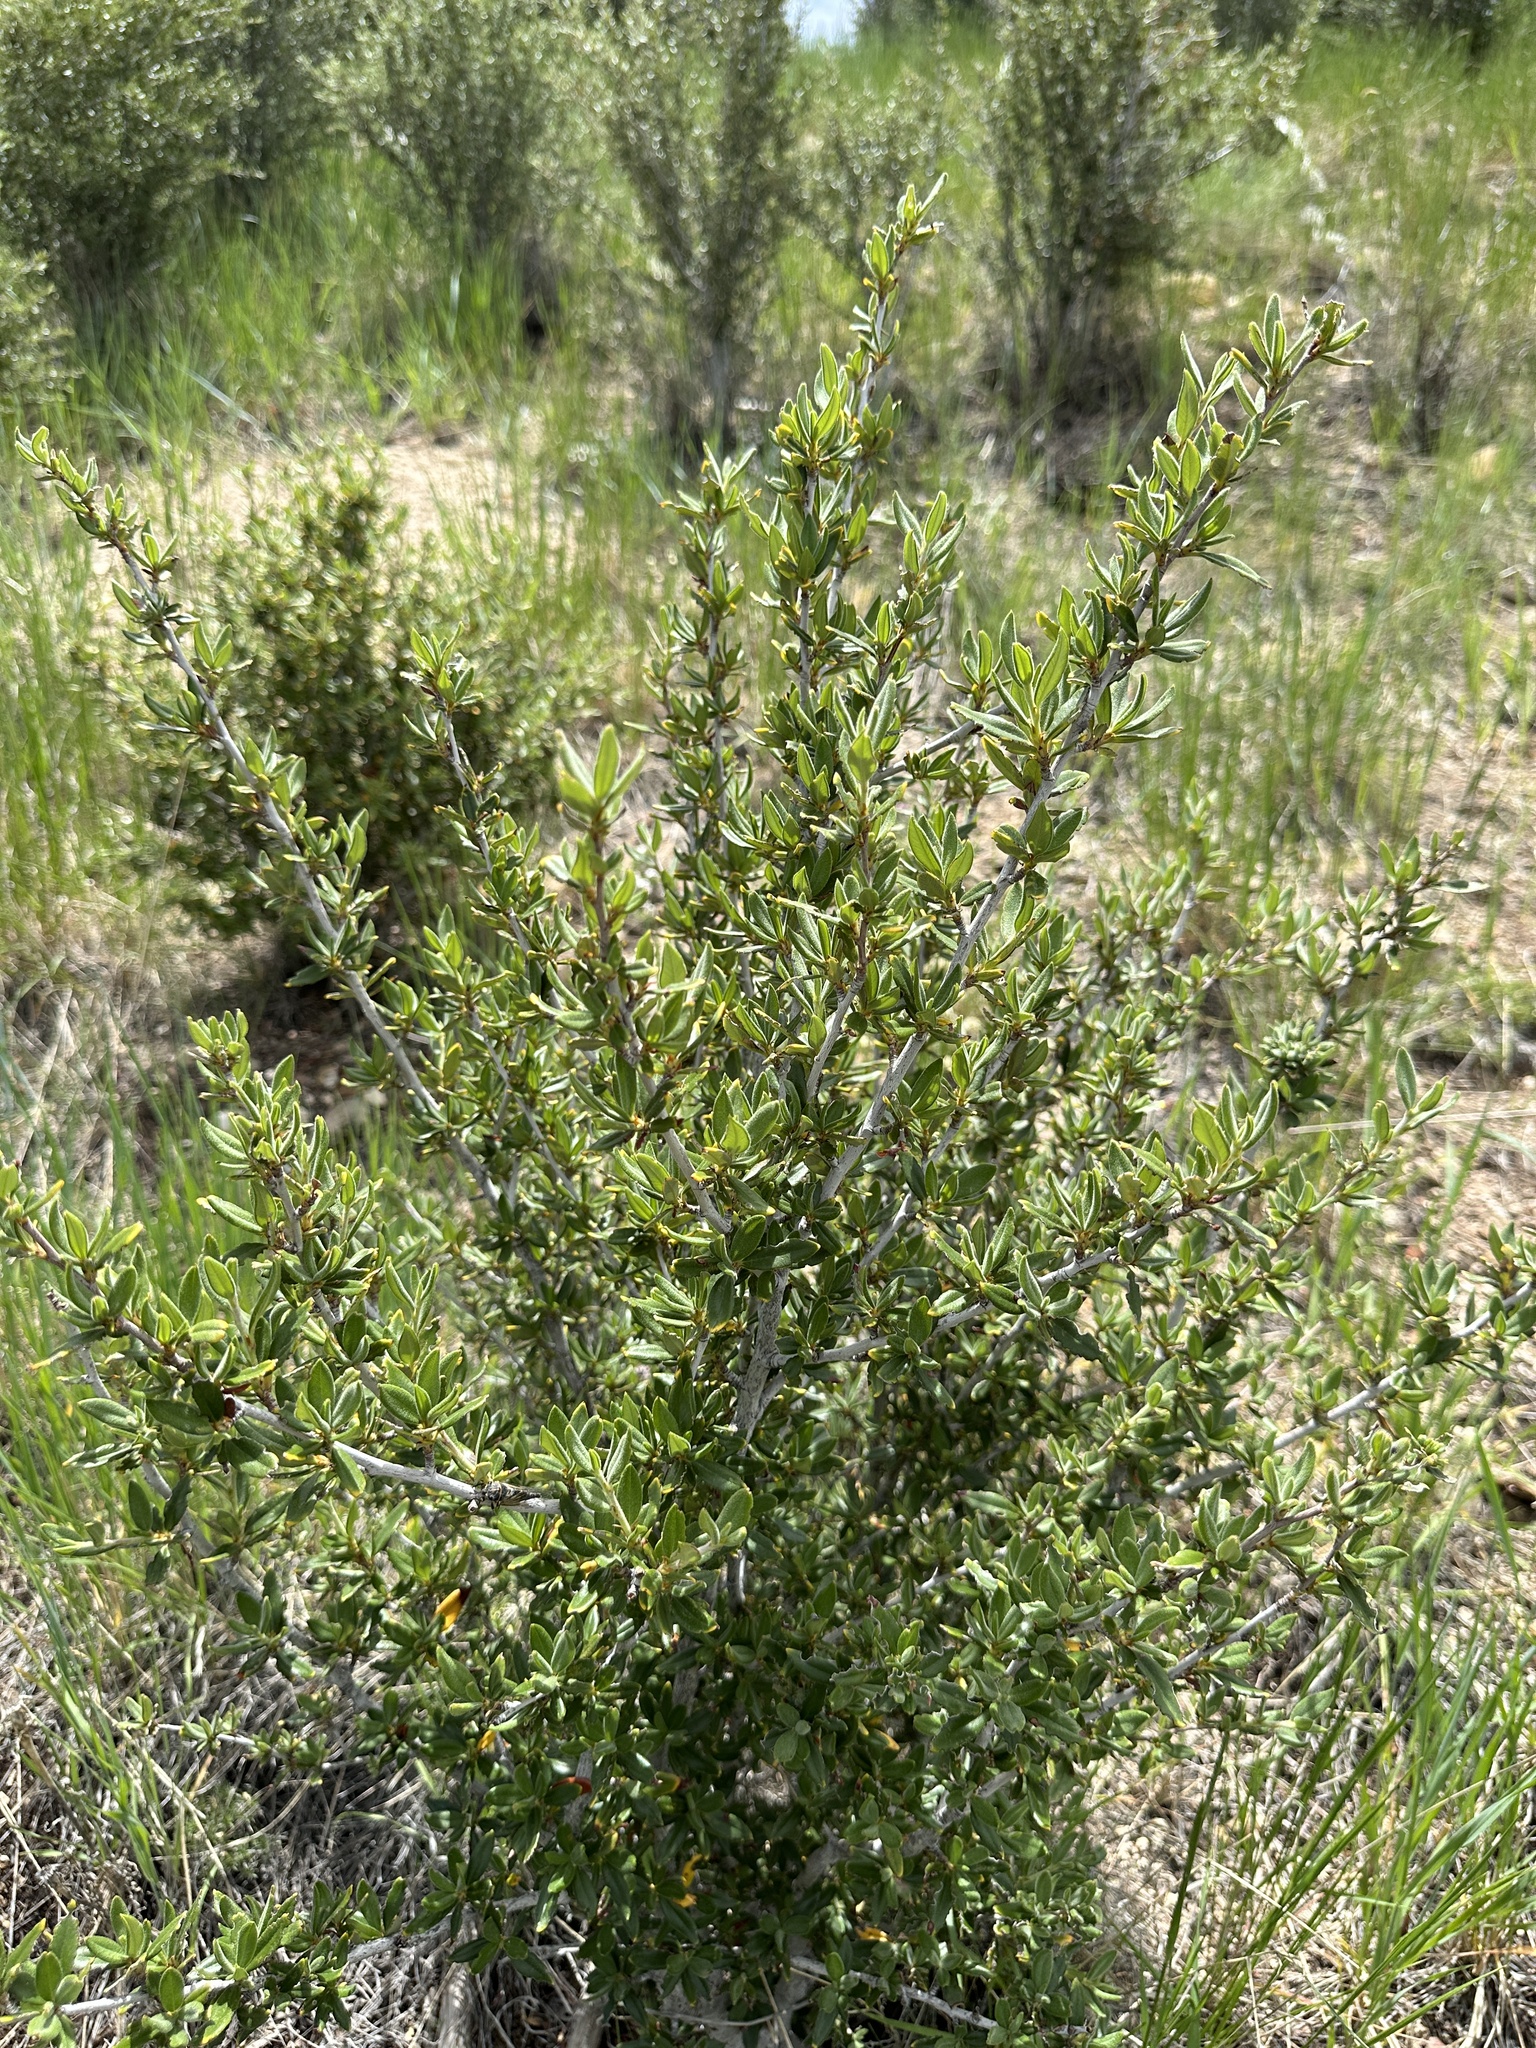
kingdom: Plantae
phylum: Tracheophyta
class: Magnoliopsida
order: Rosales
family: Rosaceae
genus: Cercocarpus
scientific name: Cercocarpus ledifolius
